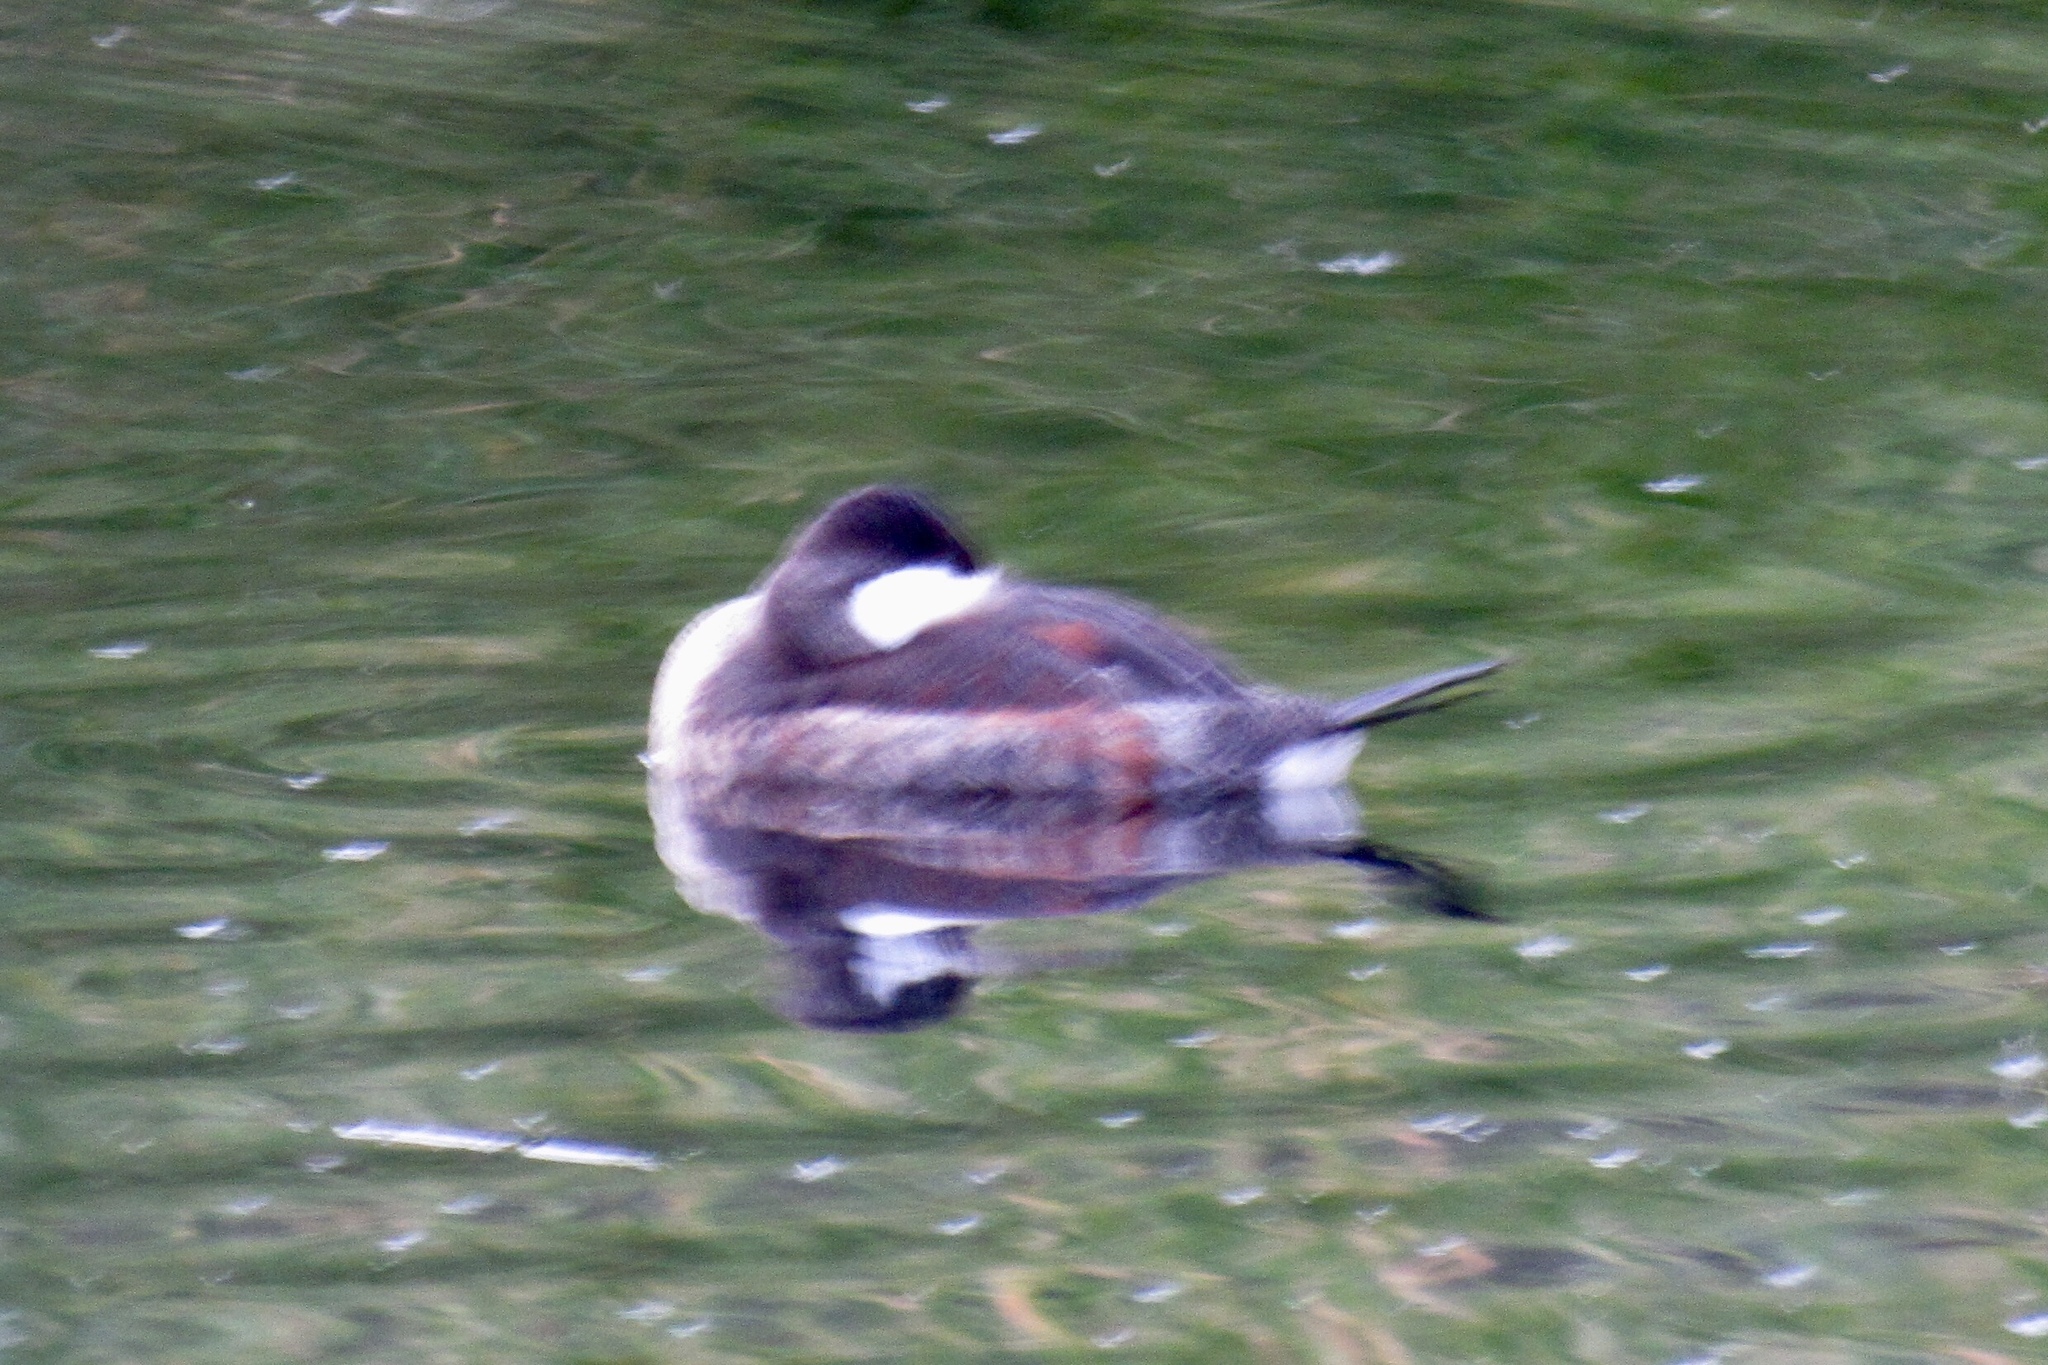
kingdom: Animalia
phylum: Chordata
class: Aves
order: Anseriformes
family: Anatidae
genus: Oxyura
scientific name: Oxyura jamaicensis
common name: Ruddy duck
